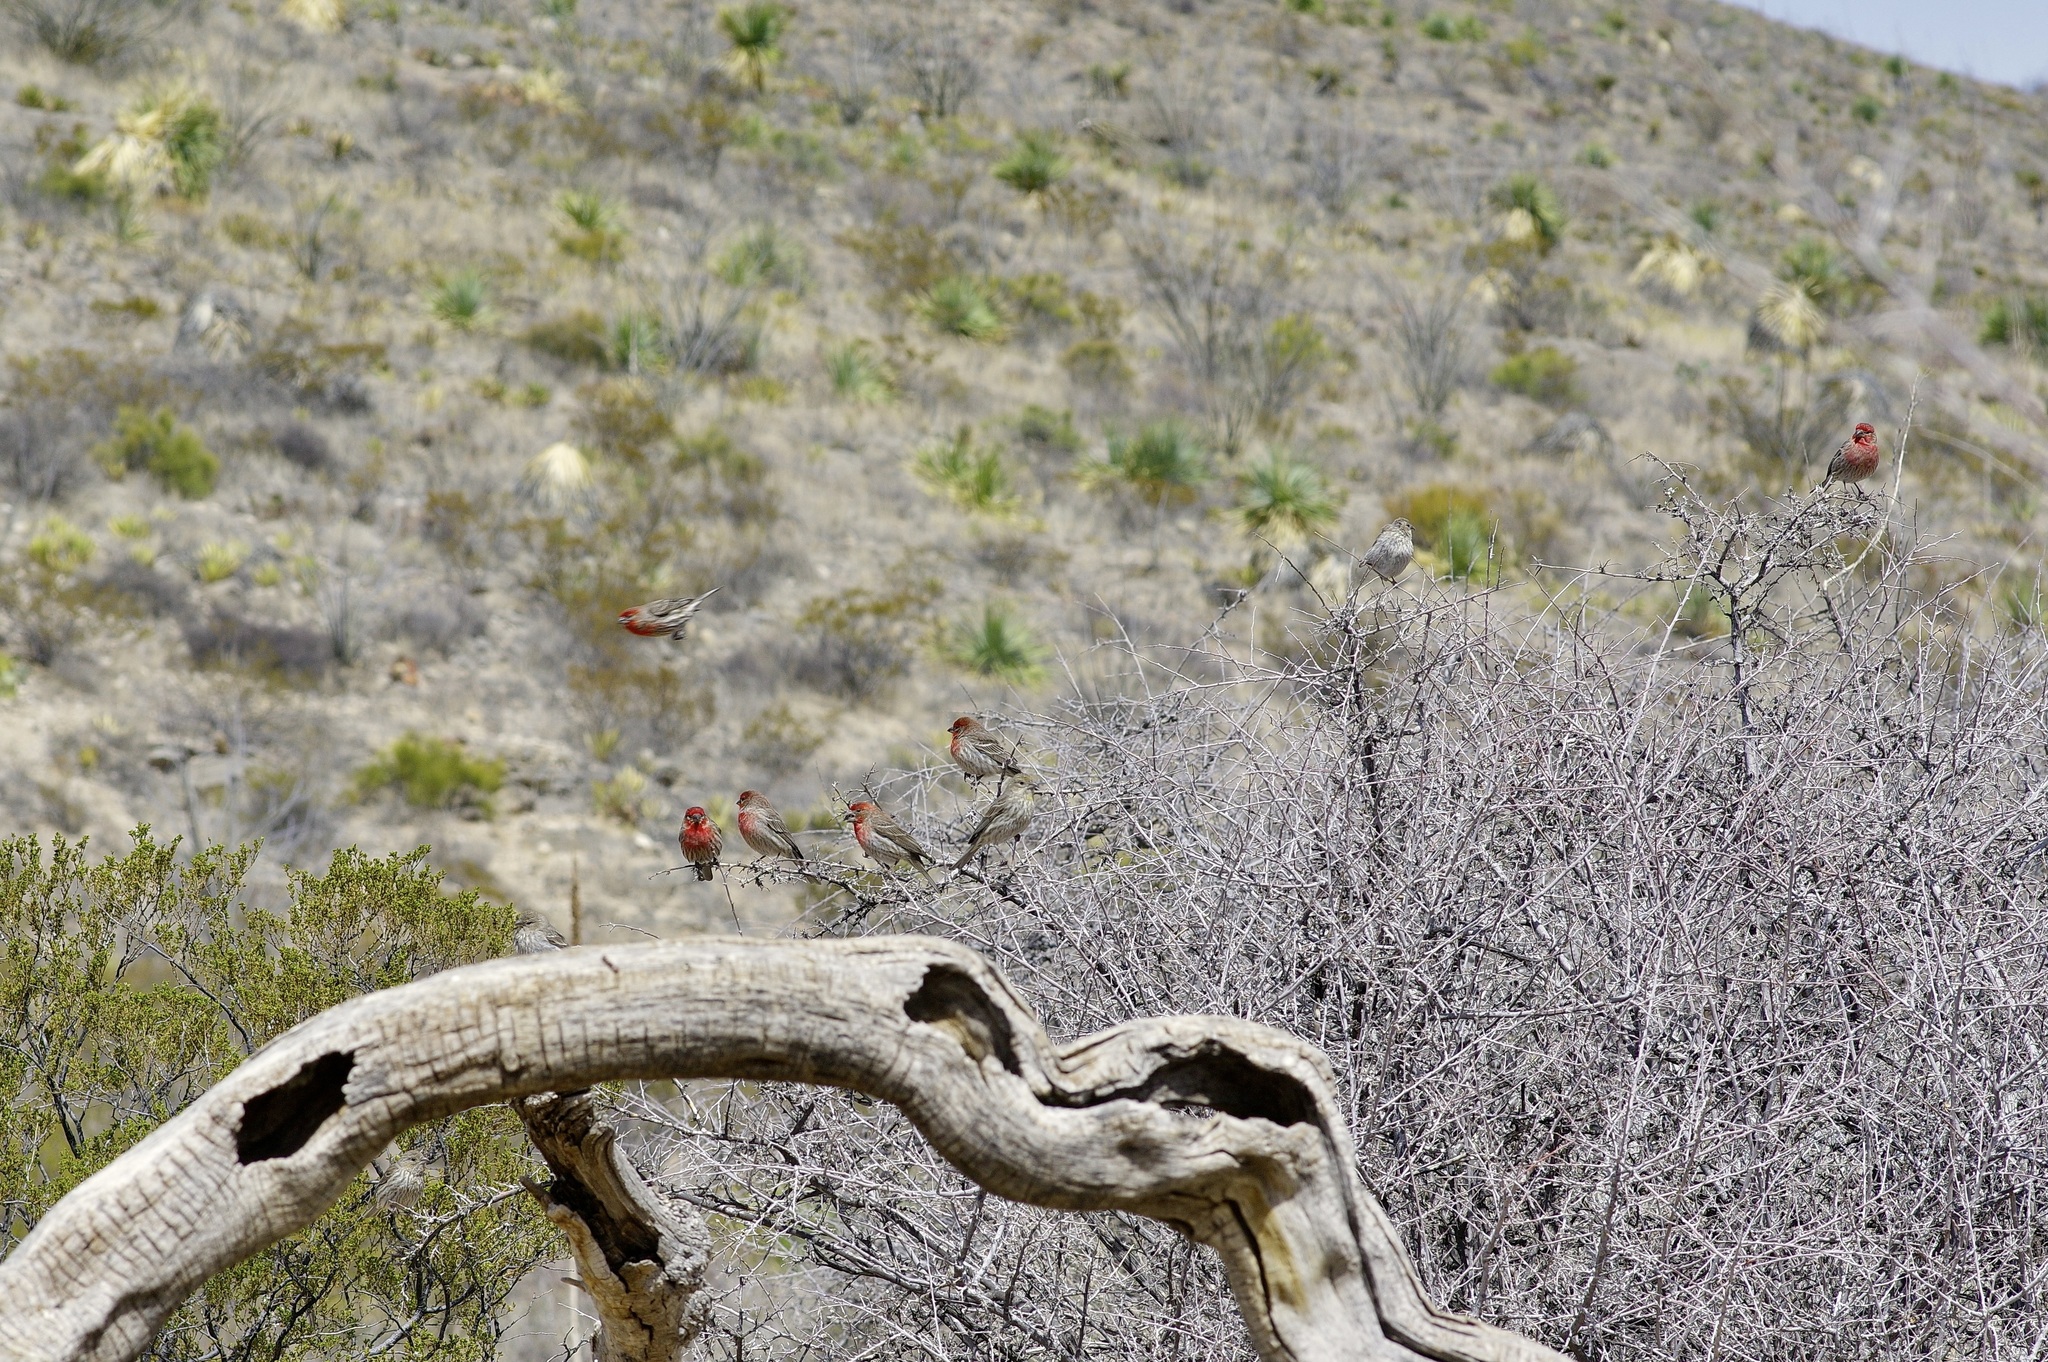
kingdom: Animalia
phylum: Chordata
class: Aves
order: Passeriformes
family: Fringillidae
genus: Haemorhous
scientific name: Haemorhous mexicanus
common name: House finch
